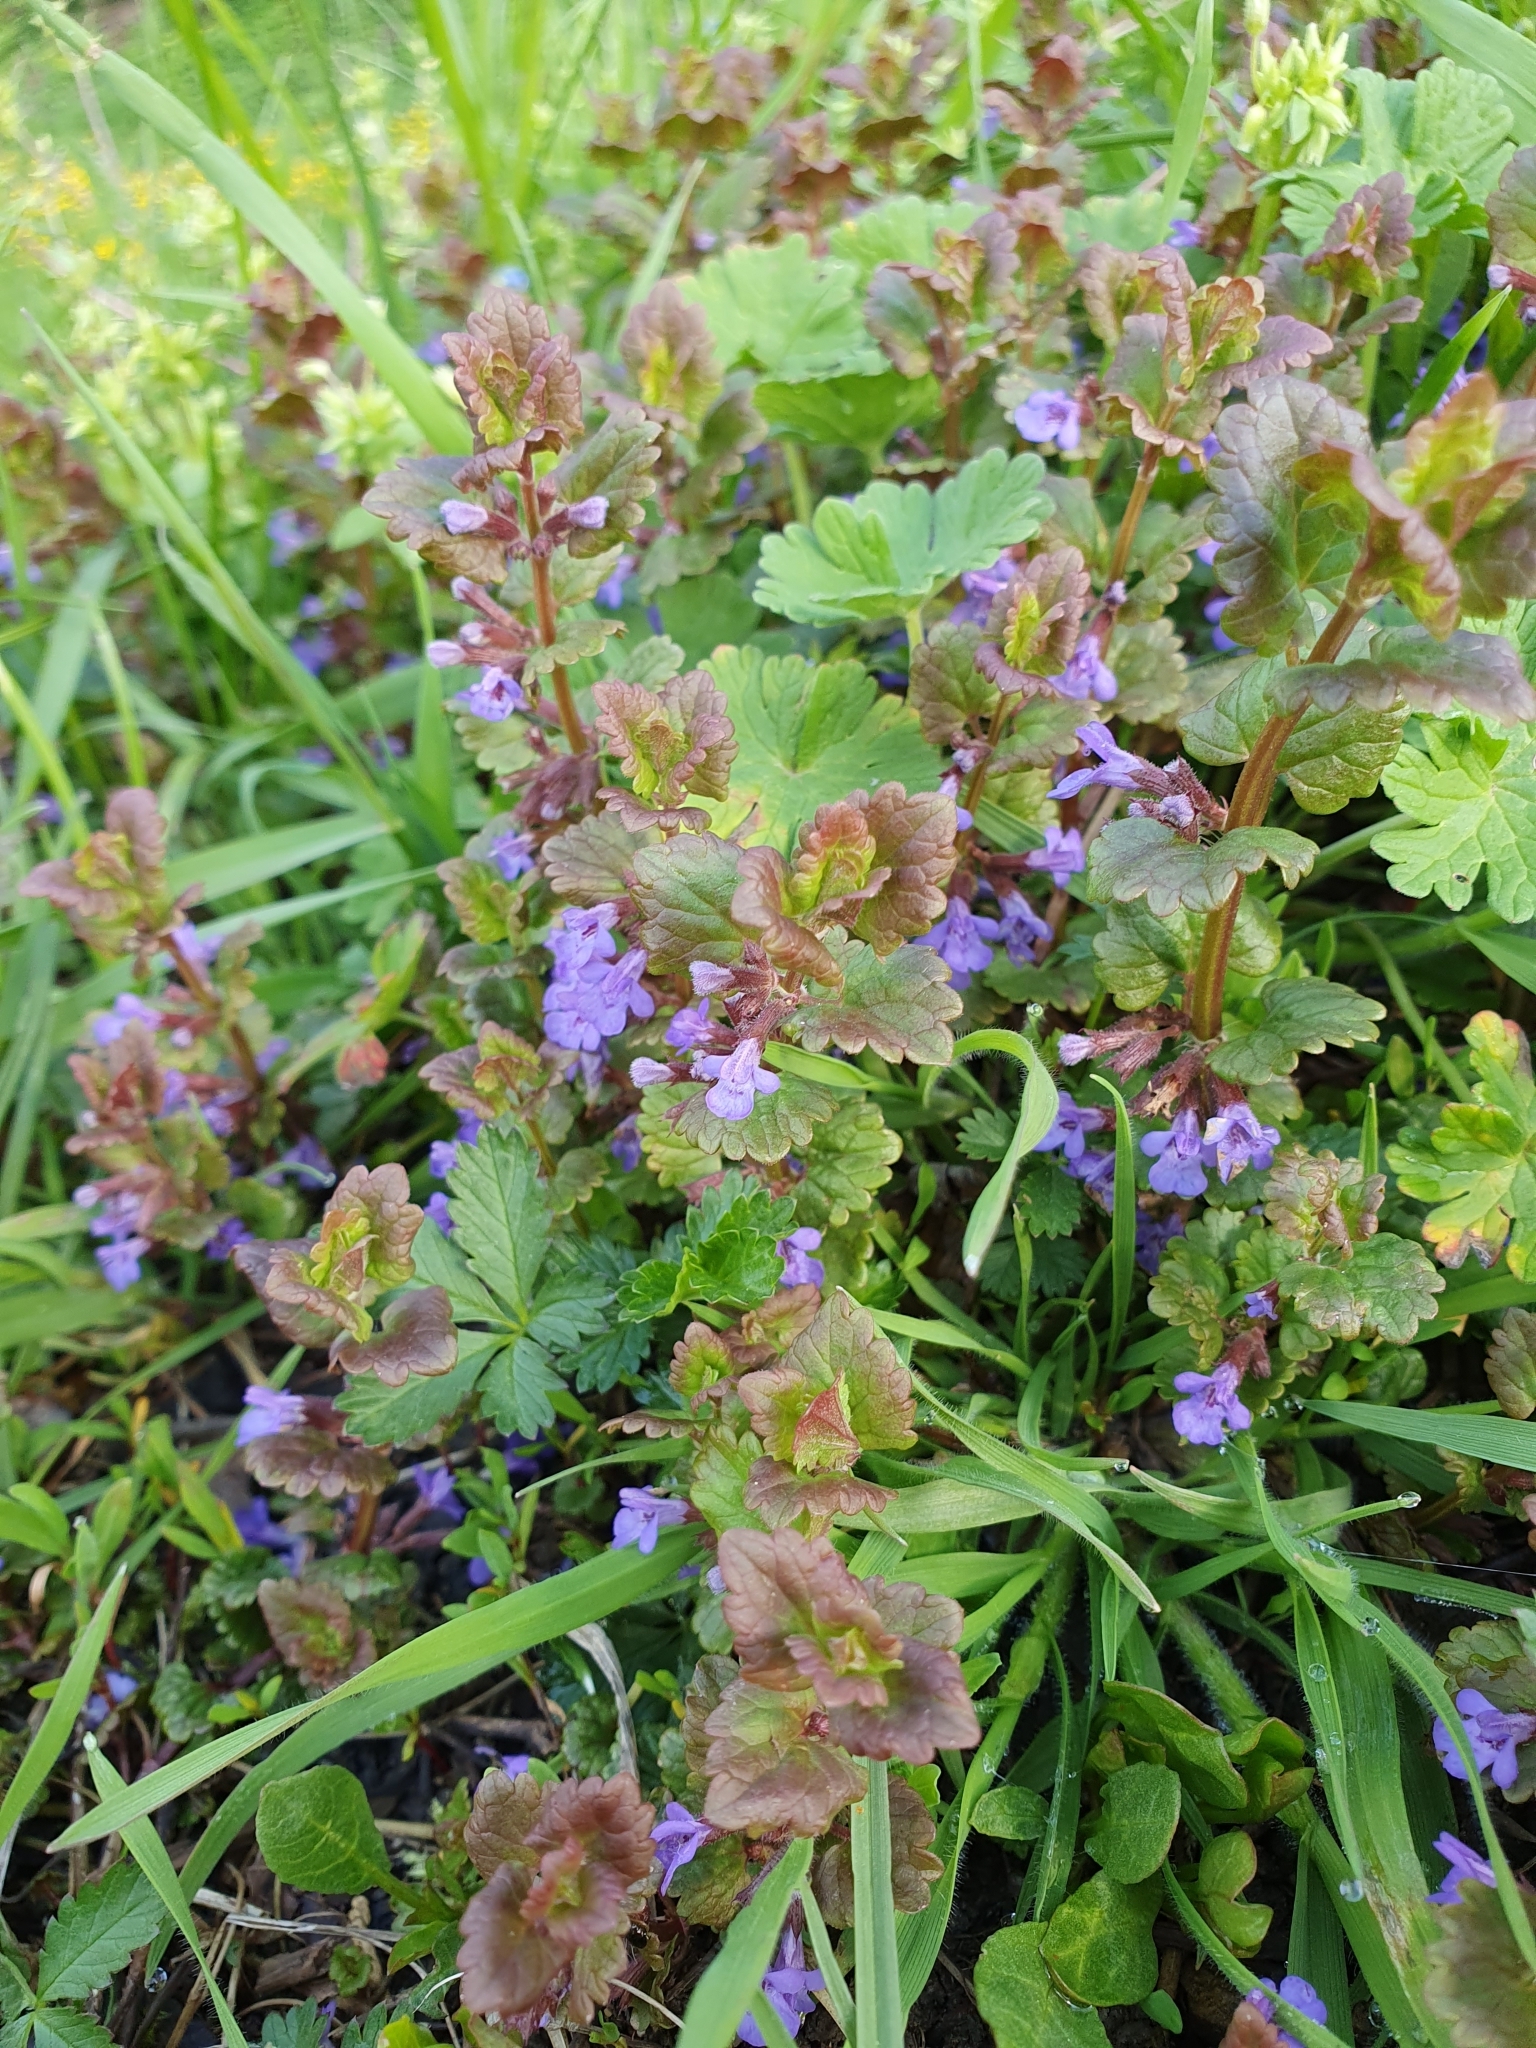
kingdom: Plantae
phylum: Tracheophyta
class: Magnoliopsida
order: Lamiales
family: Lamiaceae
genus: Glechoma
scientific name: Glechoma hederacea
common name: Ground ivy
